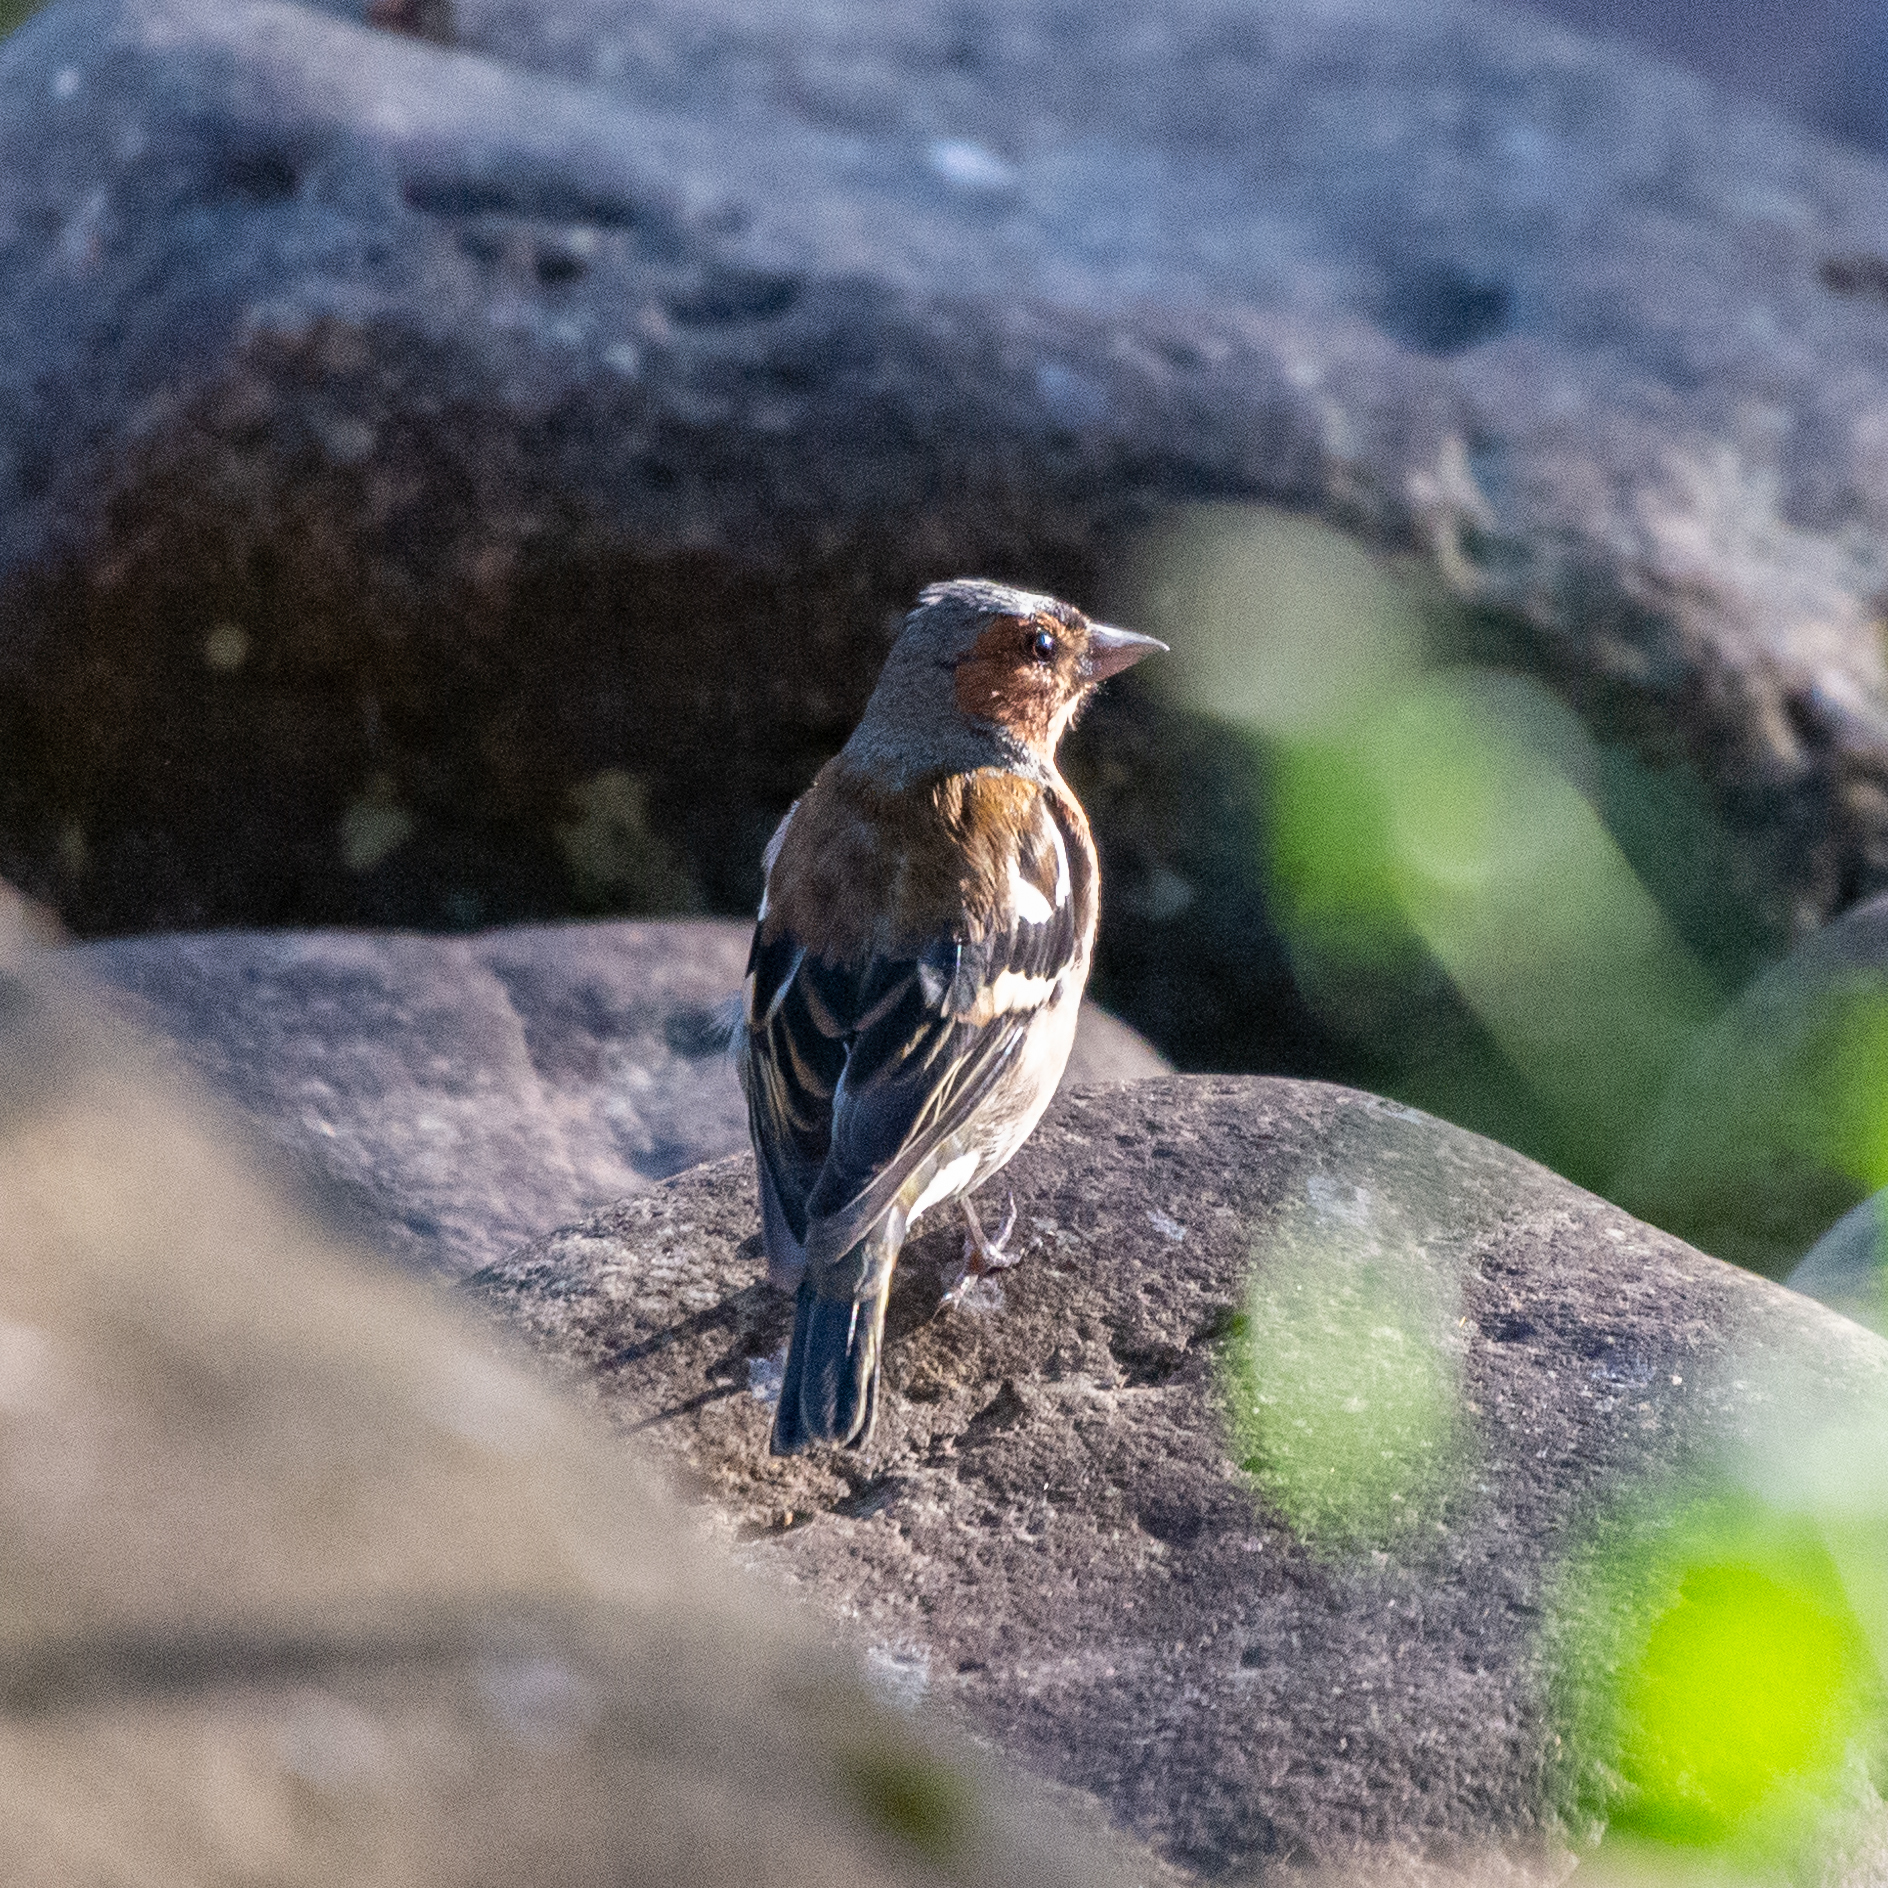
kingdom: Animalia
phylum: Chordata
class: Aves
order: Passeriformes
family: Fringillidae
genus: Fringilla
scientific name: Fringilla coelebs
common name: Common chaffinch
